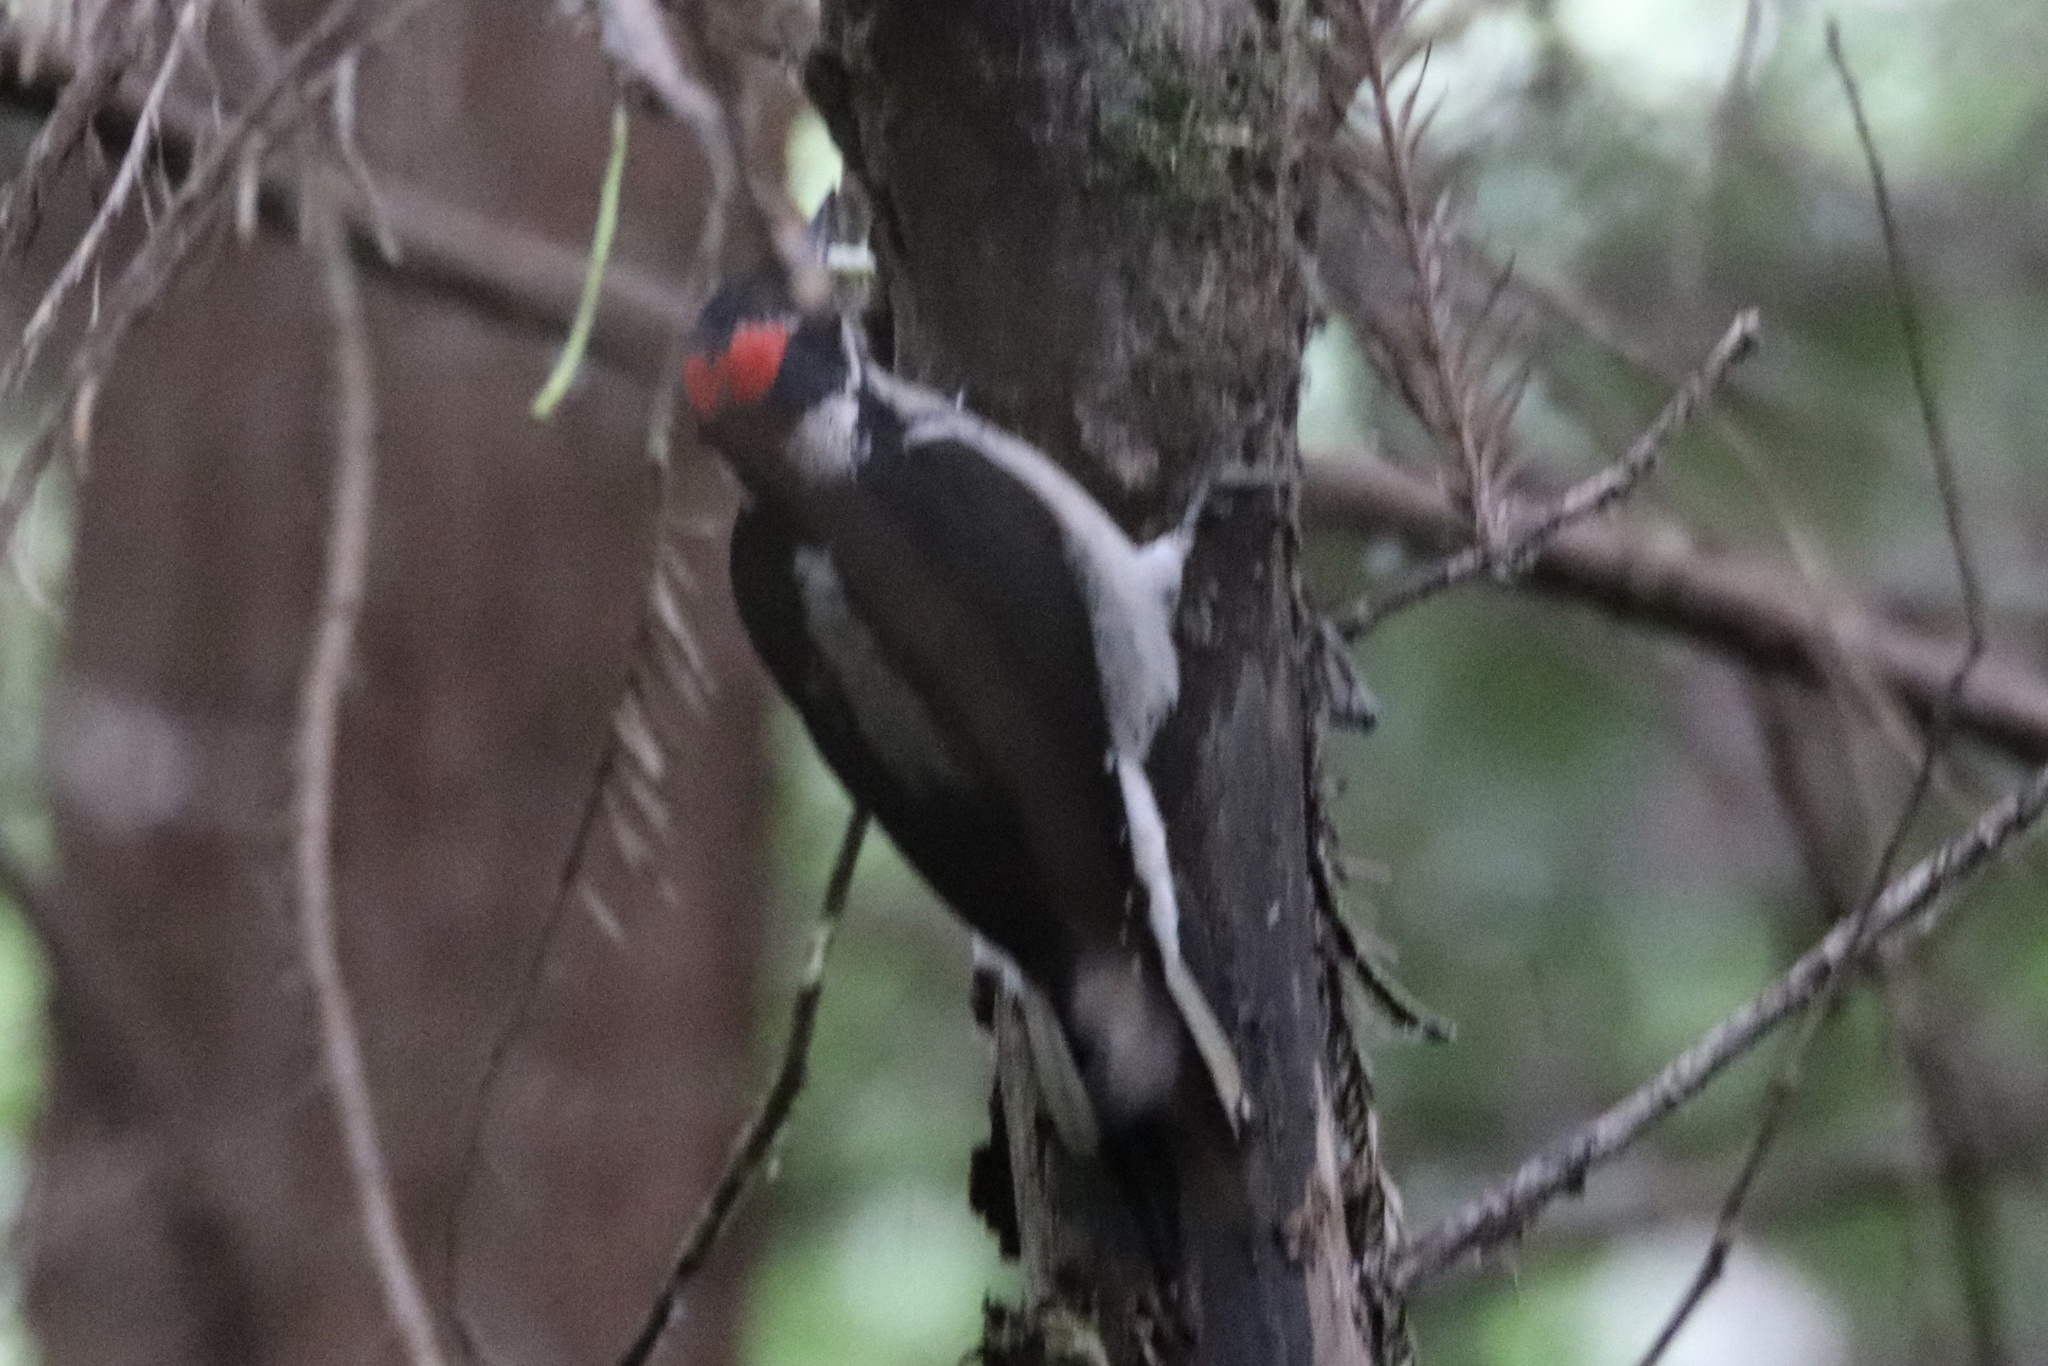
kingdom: Animalia
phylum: Chordata
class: Aves
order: Piciformes
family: Picidae
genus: Leuconotopicus
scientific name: Leuconotopicus villosus
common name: Hairy woodpecker
